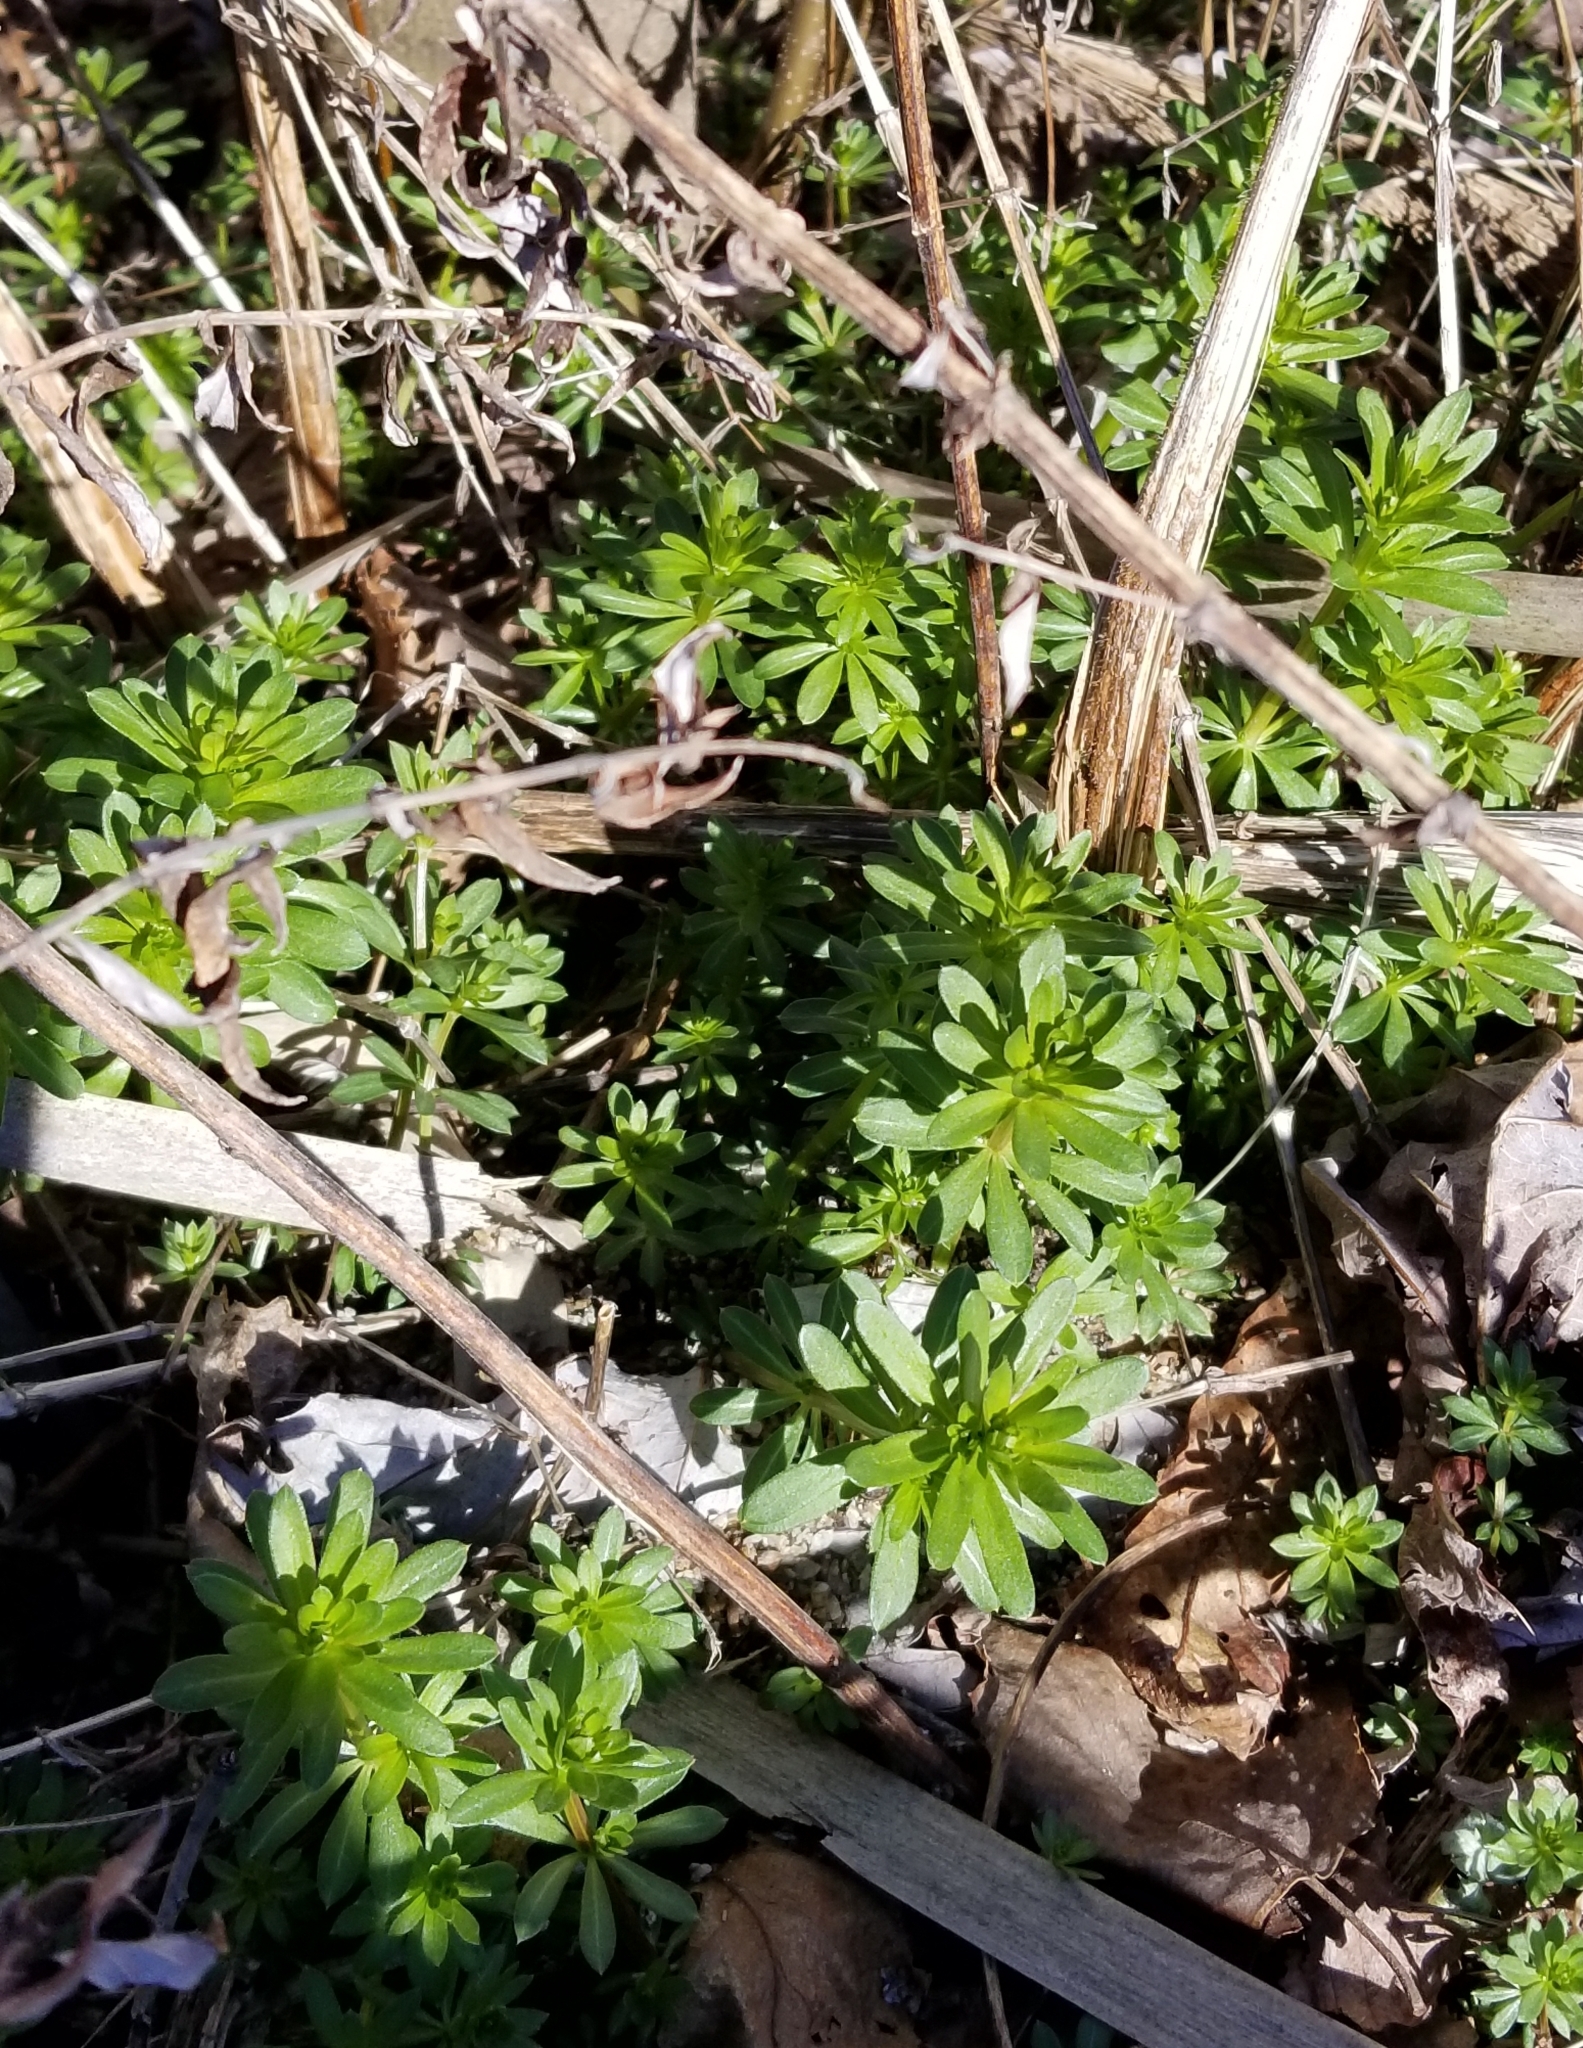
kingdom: Plantae
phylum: Tracheophyta
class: Magnoliopsida
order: Gentianales
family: Rubiaceae
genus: Galium
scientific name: Galium mollugo
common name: Hedge bedstraw
